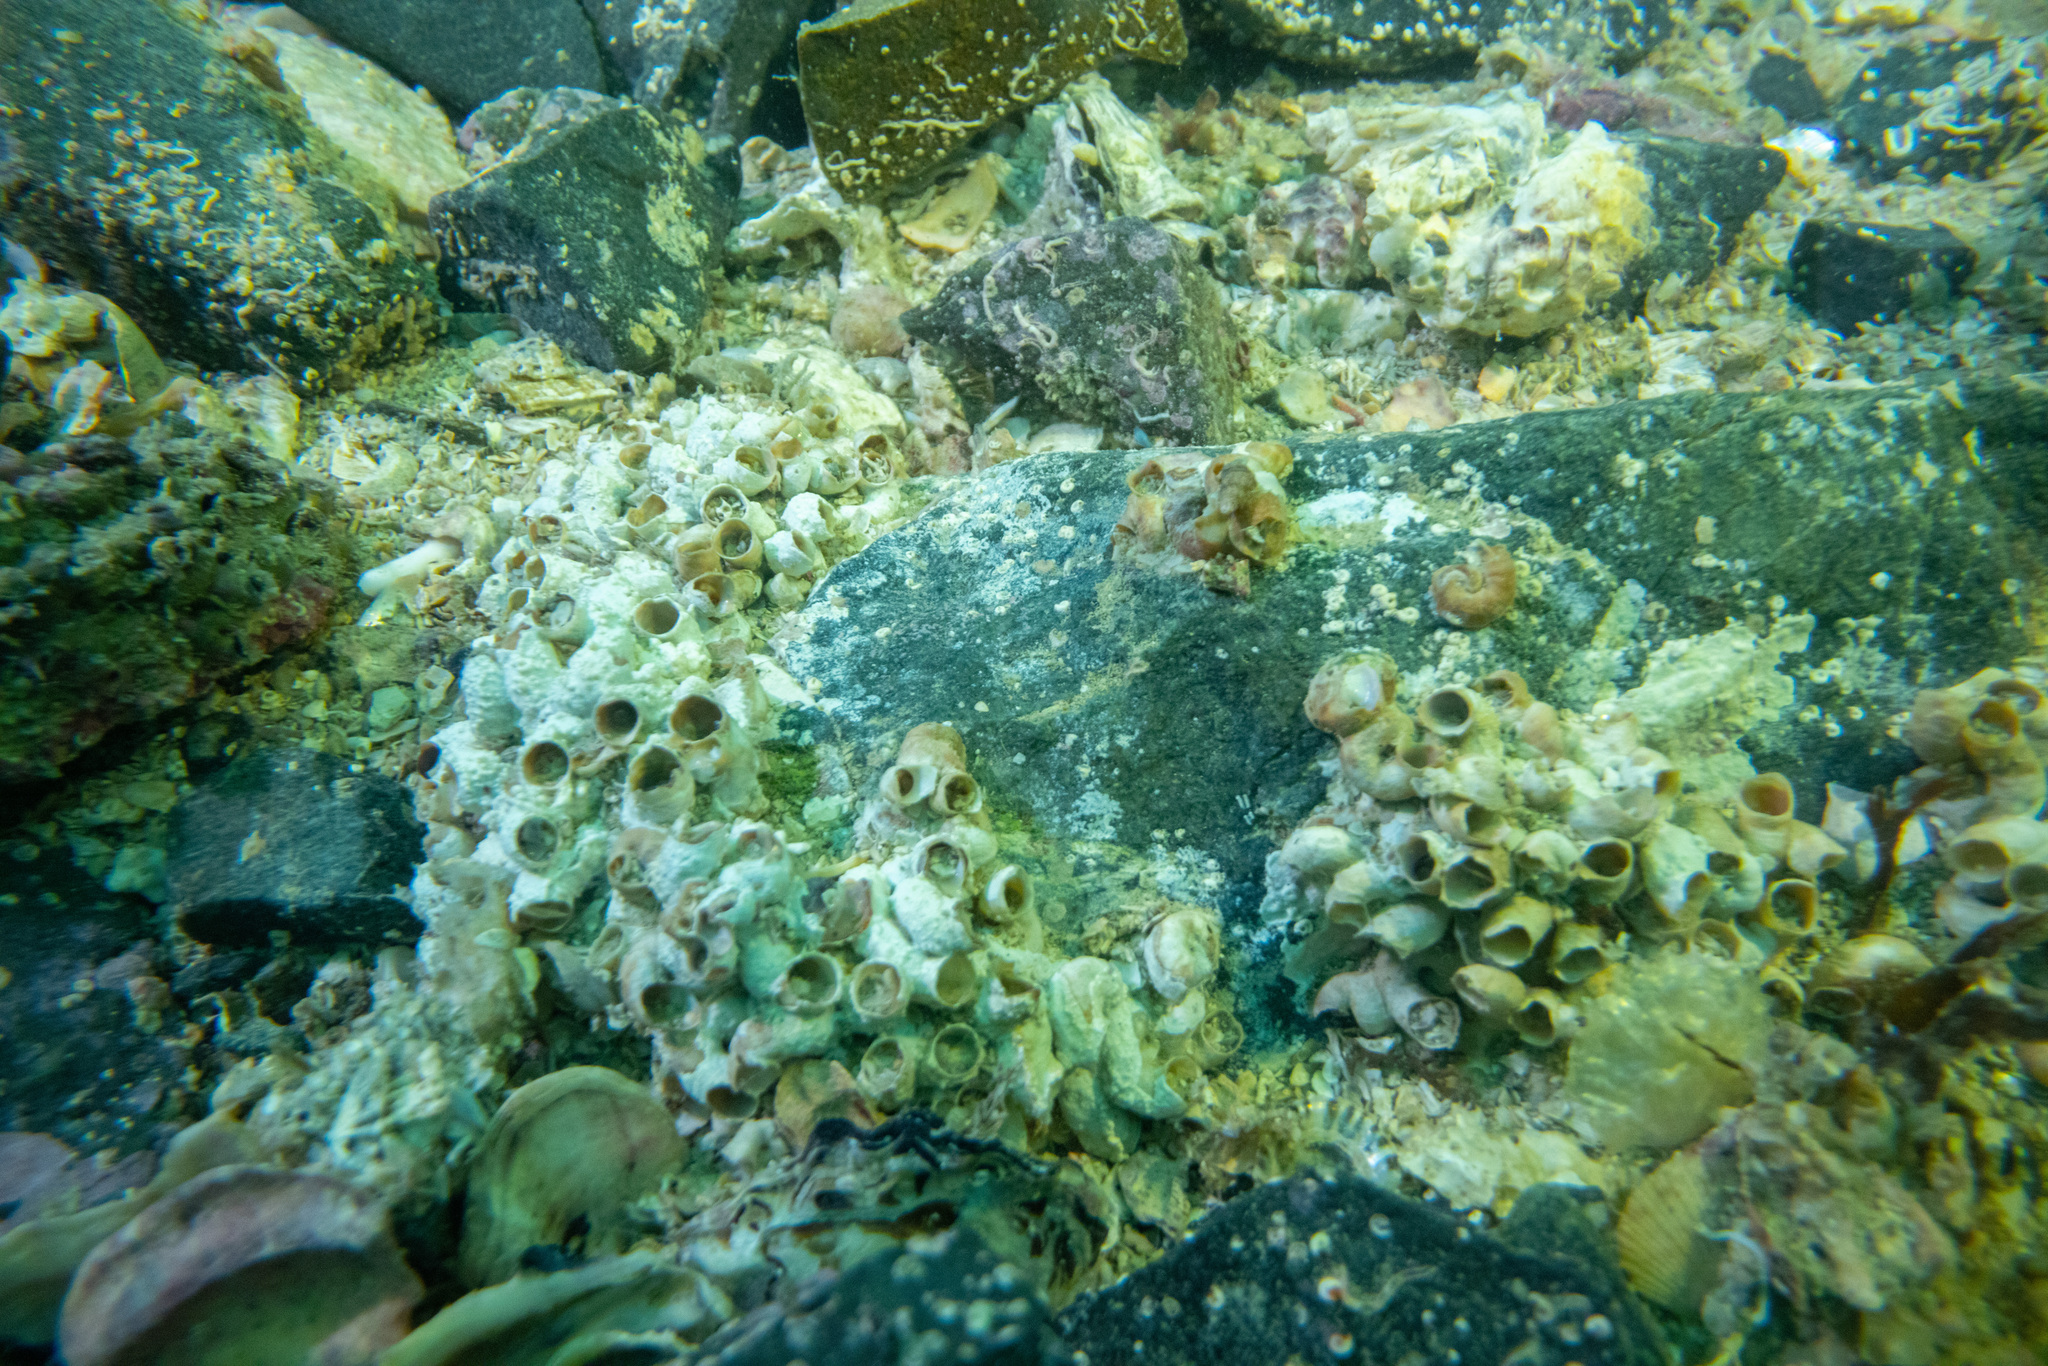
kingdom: Animalia
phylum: Mollusca
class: Gastropoda
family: Siliquariidae
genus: Stephopoma
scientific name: Stephopoma roseum
